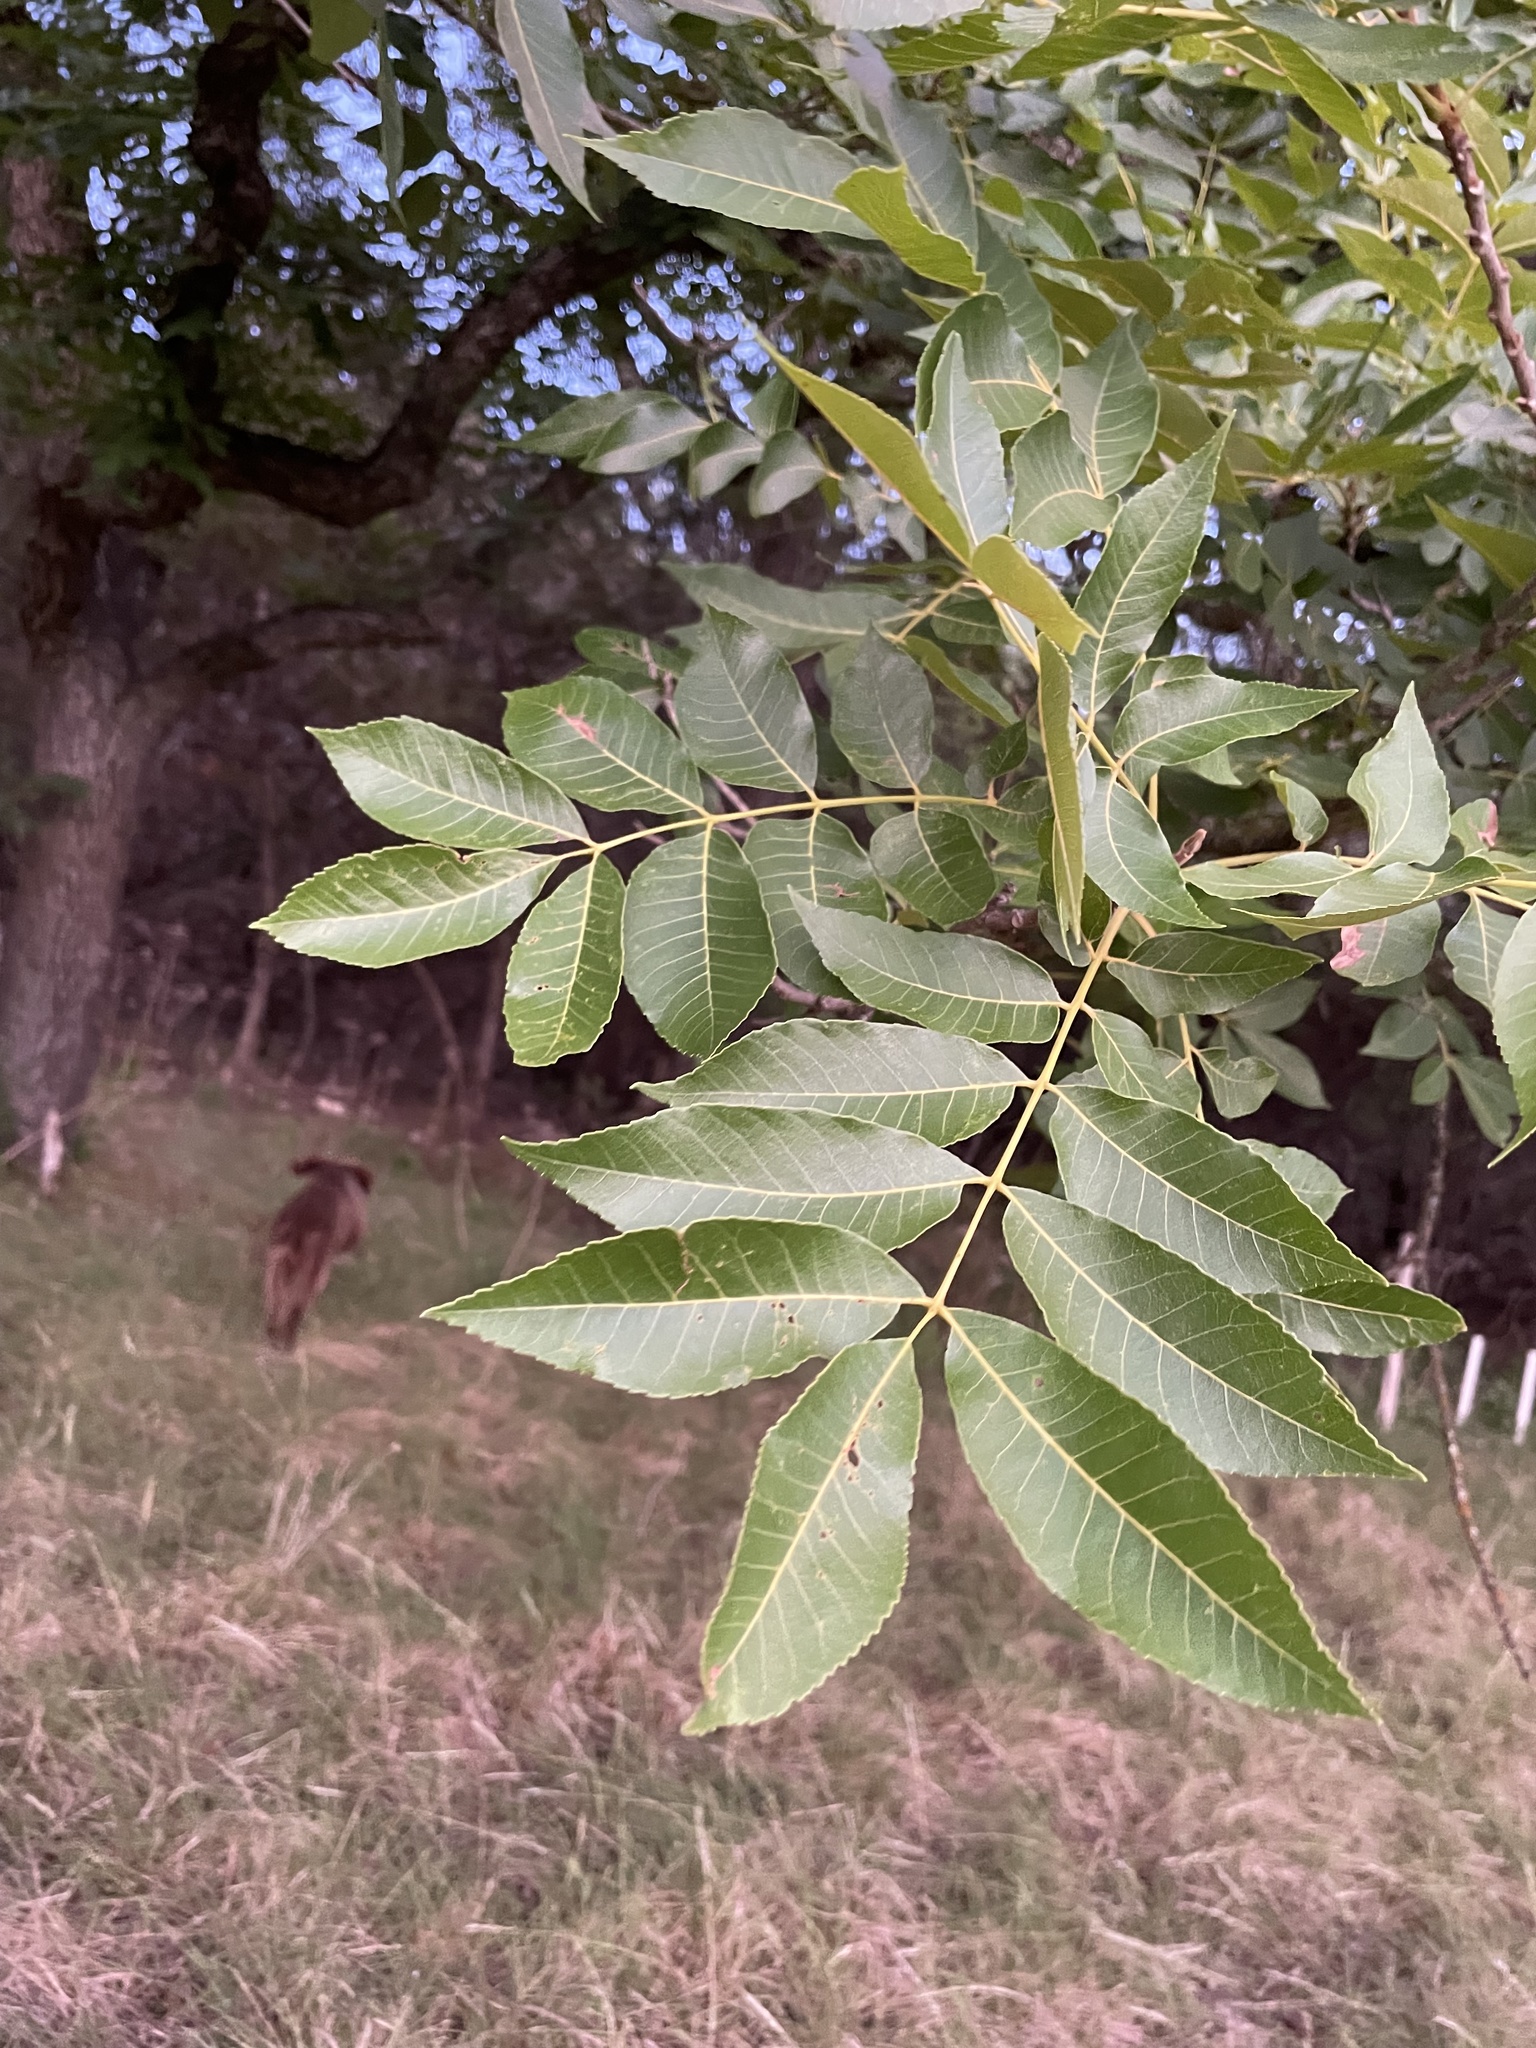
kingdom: Plantae
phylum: Tracheophyta
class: Magnoliopsida
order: Fagales
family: Juglandaceae
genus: Carya
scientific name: Carya illinoinensis
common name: Pecan
